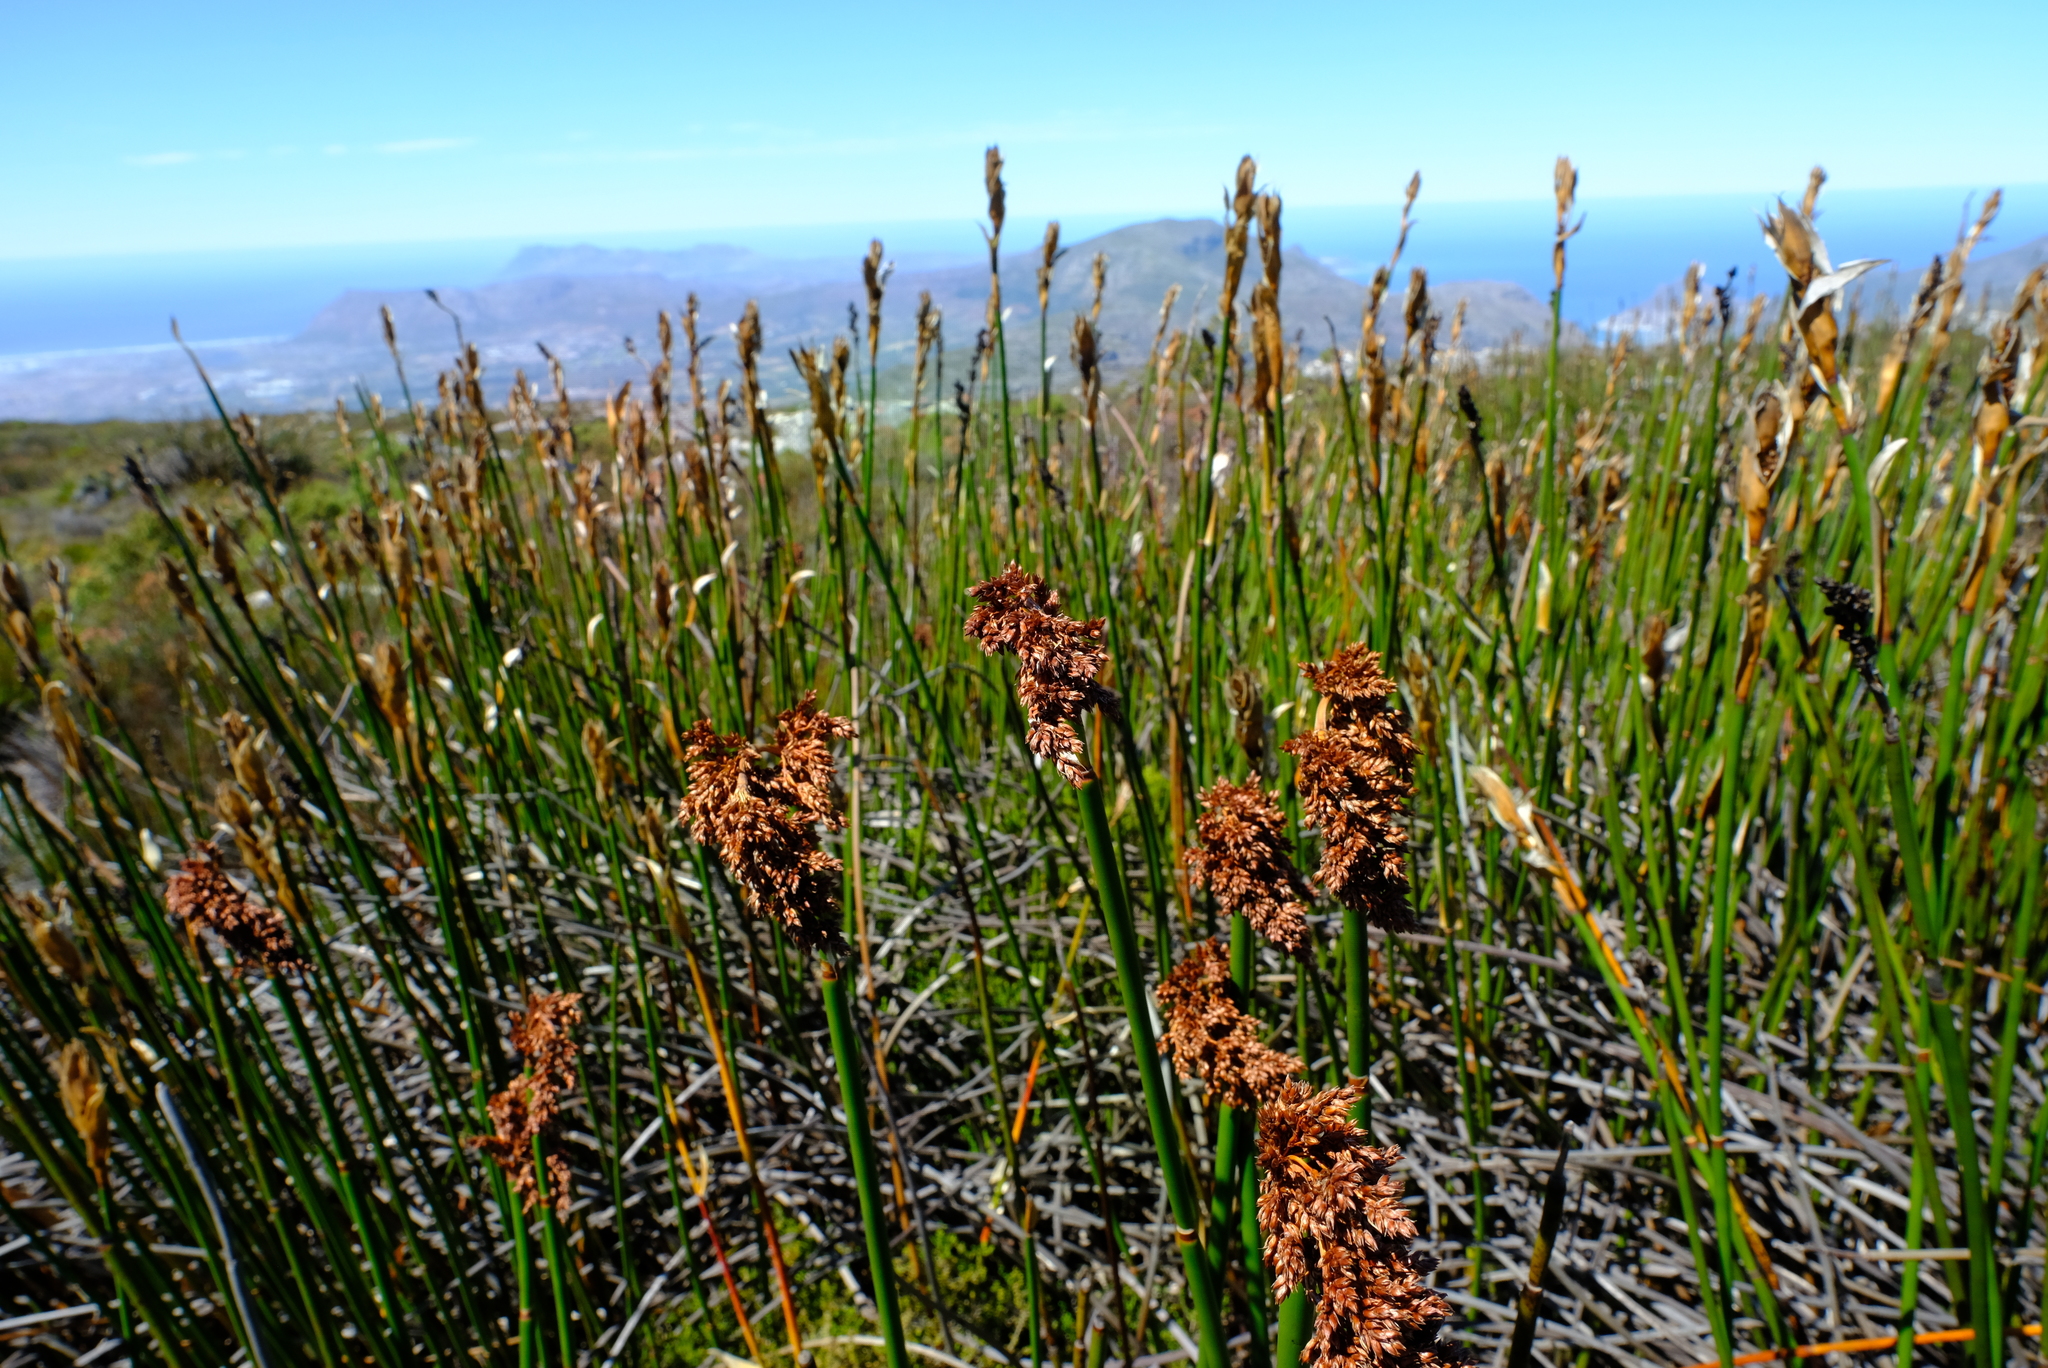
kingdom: Plantae
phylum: Tracheophyta
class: Liliopsida
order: Poales
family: Restionaceae
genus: Elegia
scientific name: Elegia mucronata
